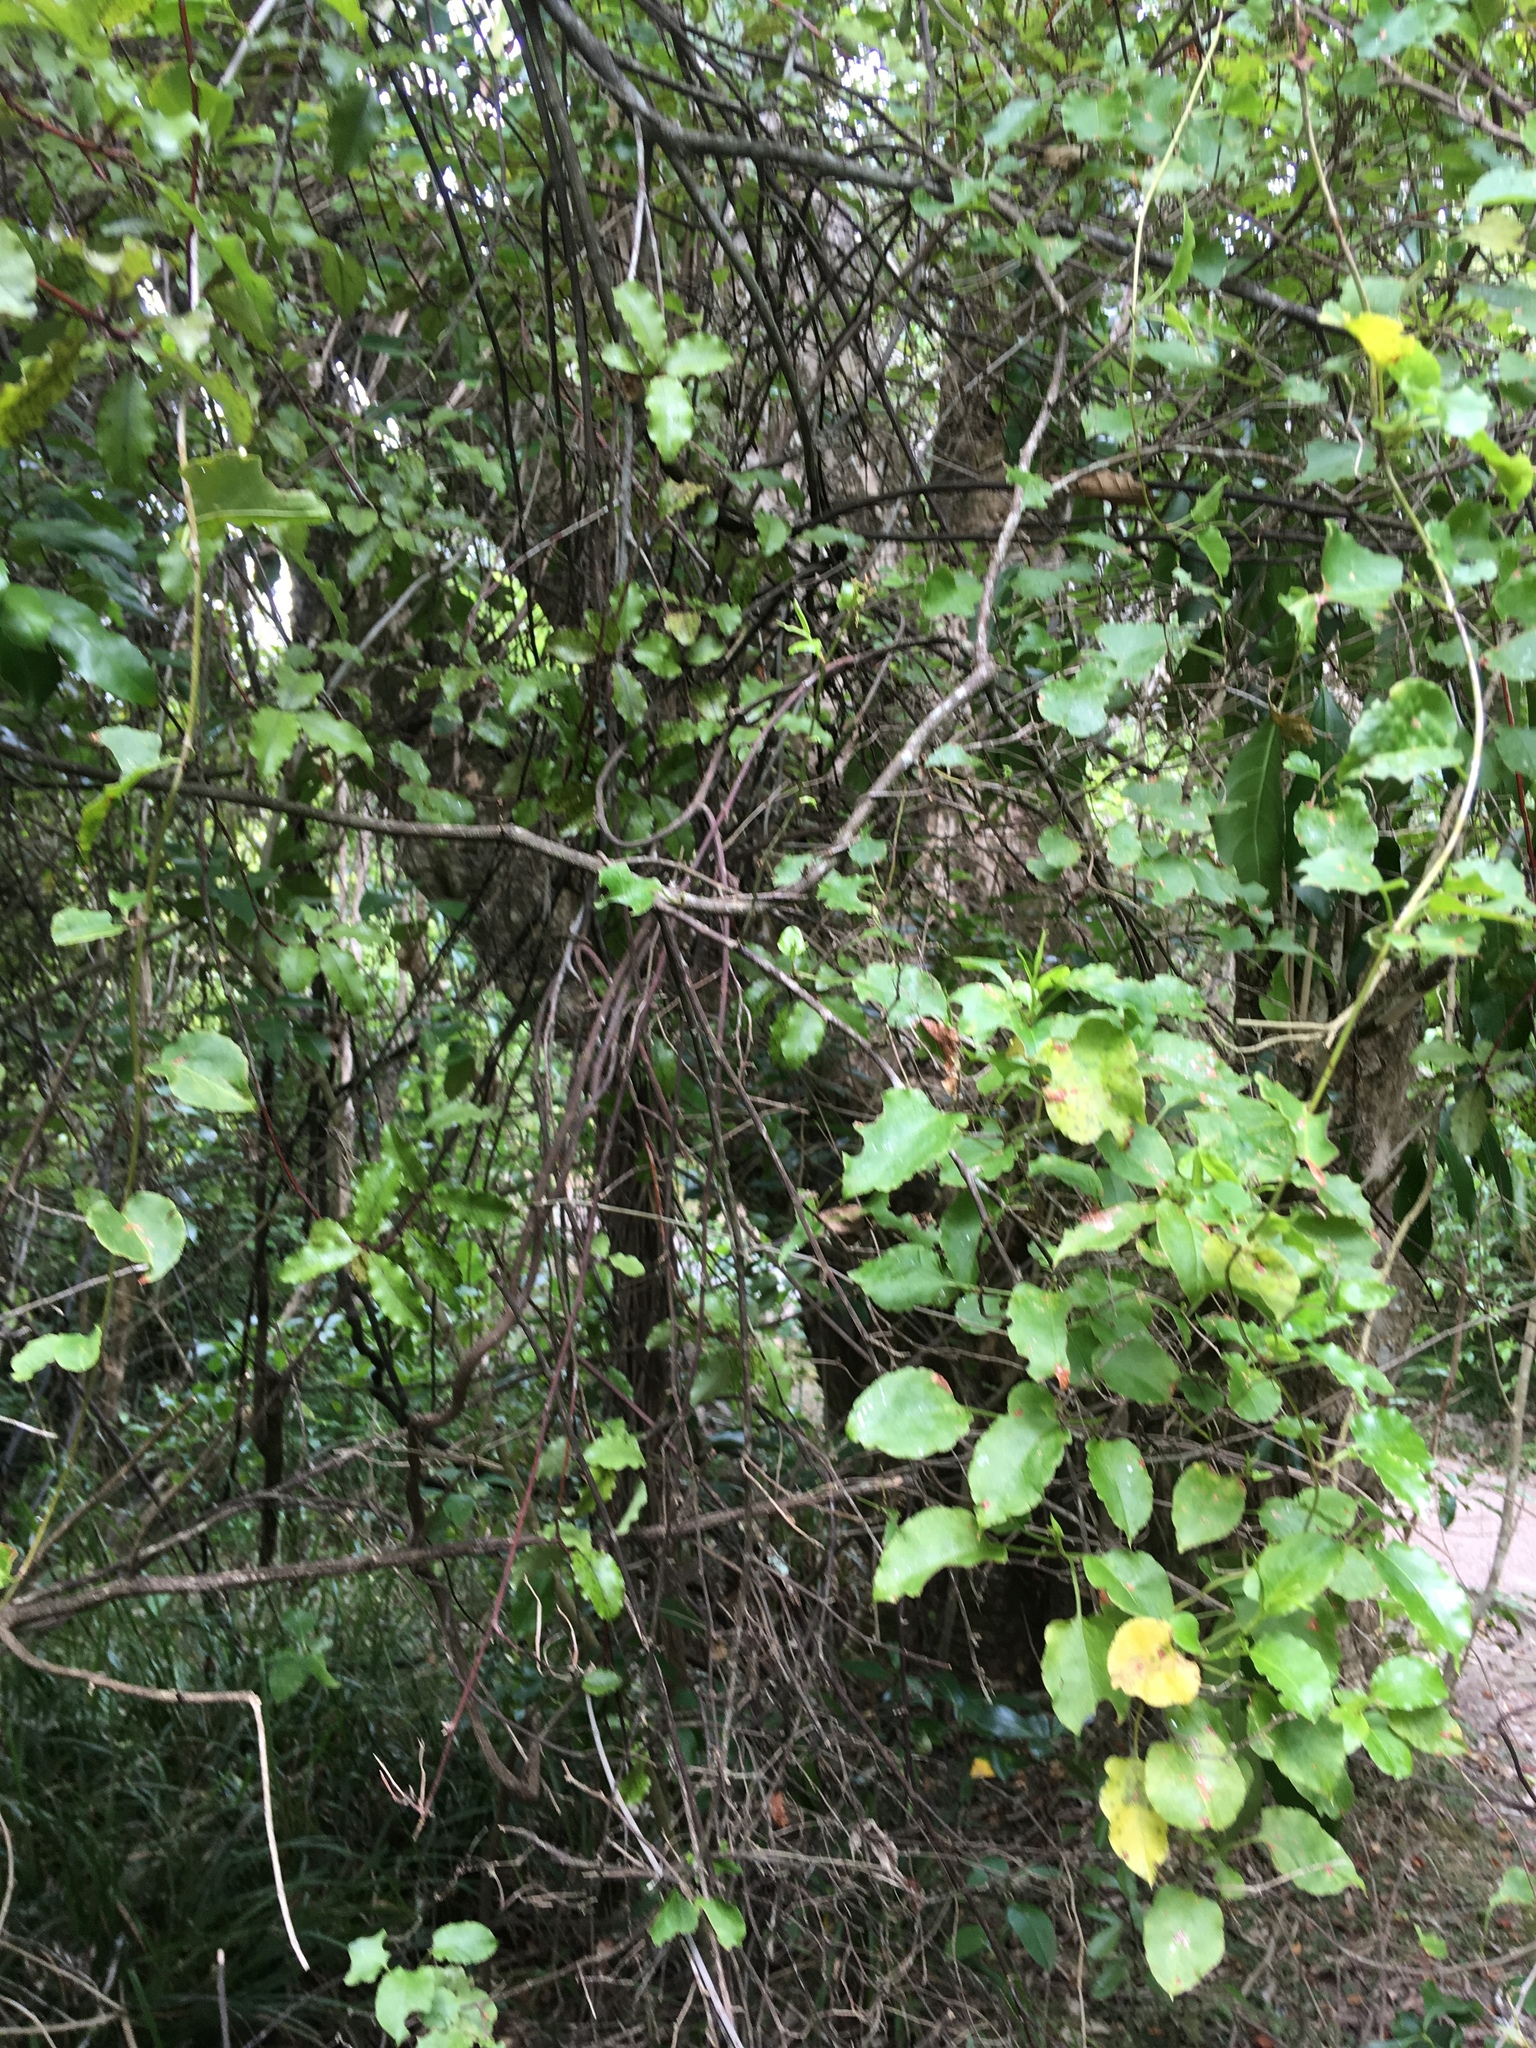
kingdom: Plantae
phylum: Tracheophyta
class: Magnoliopsida
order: Caryophyllales
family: Polygonaceae
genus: Muehlenbeckia
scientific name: Muehlenbeckia australis
